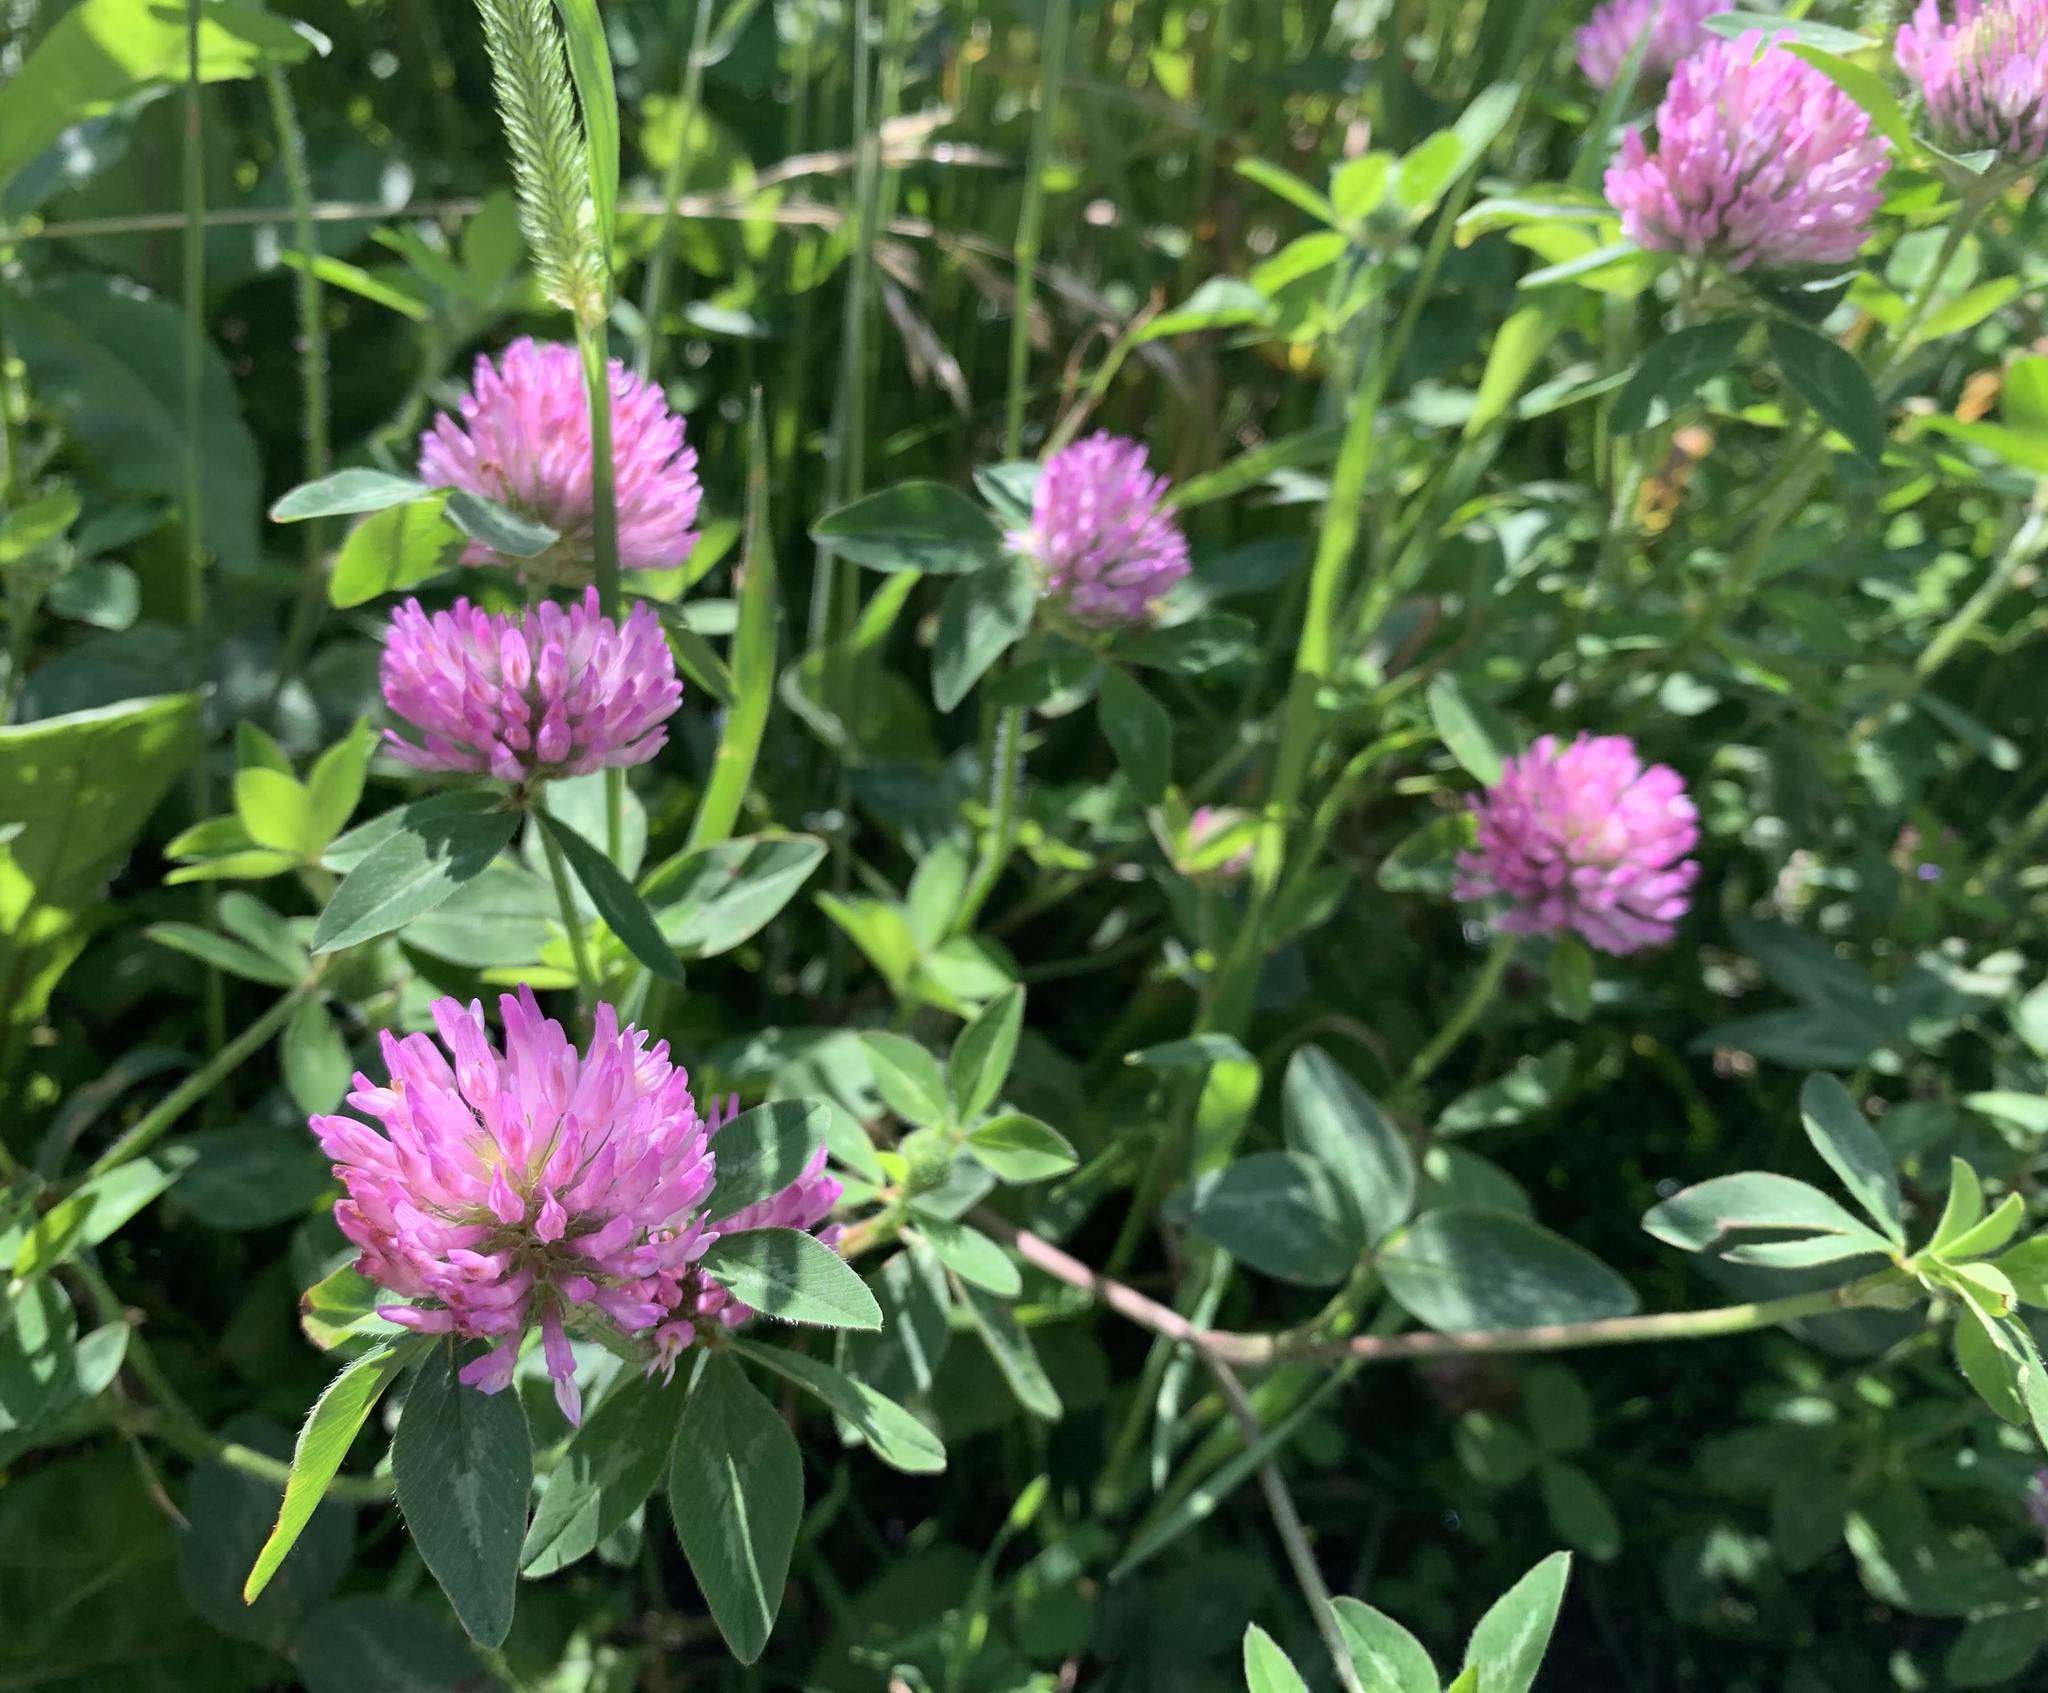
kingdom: Plantae
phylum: Tracheophyta
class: Magnoliopsida
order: Fabales
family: Fabaceae
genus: Trifolium
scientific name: Trifolium pratense
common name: Red clover
